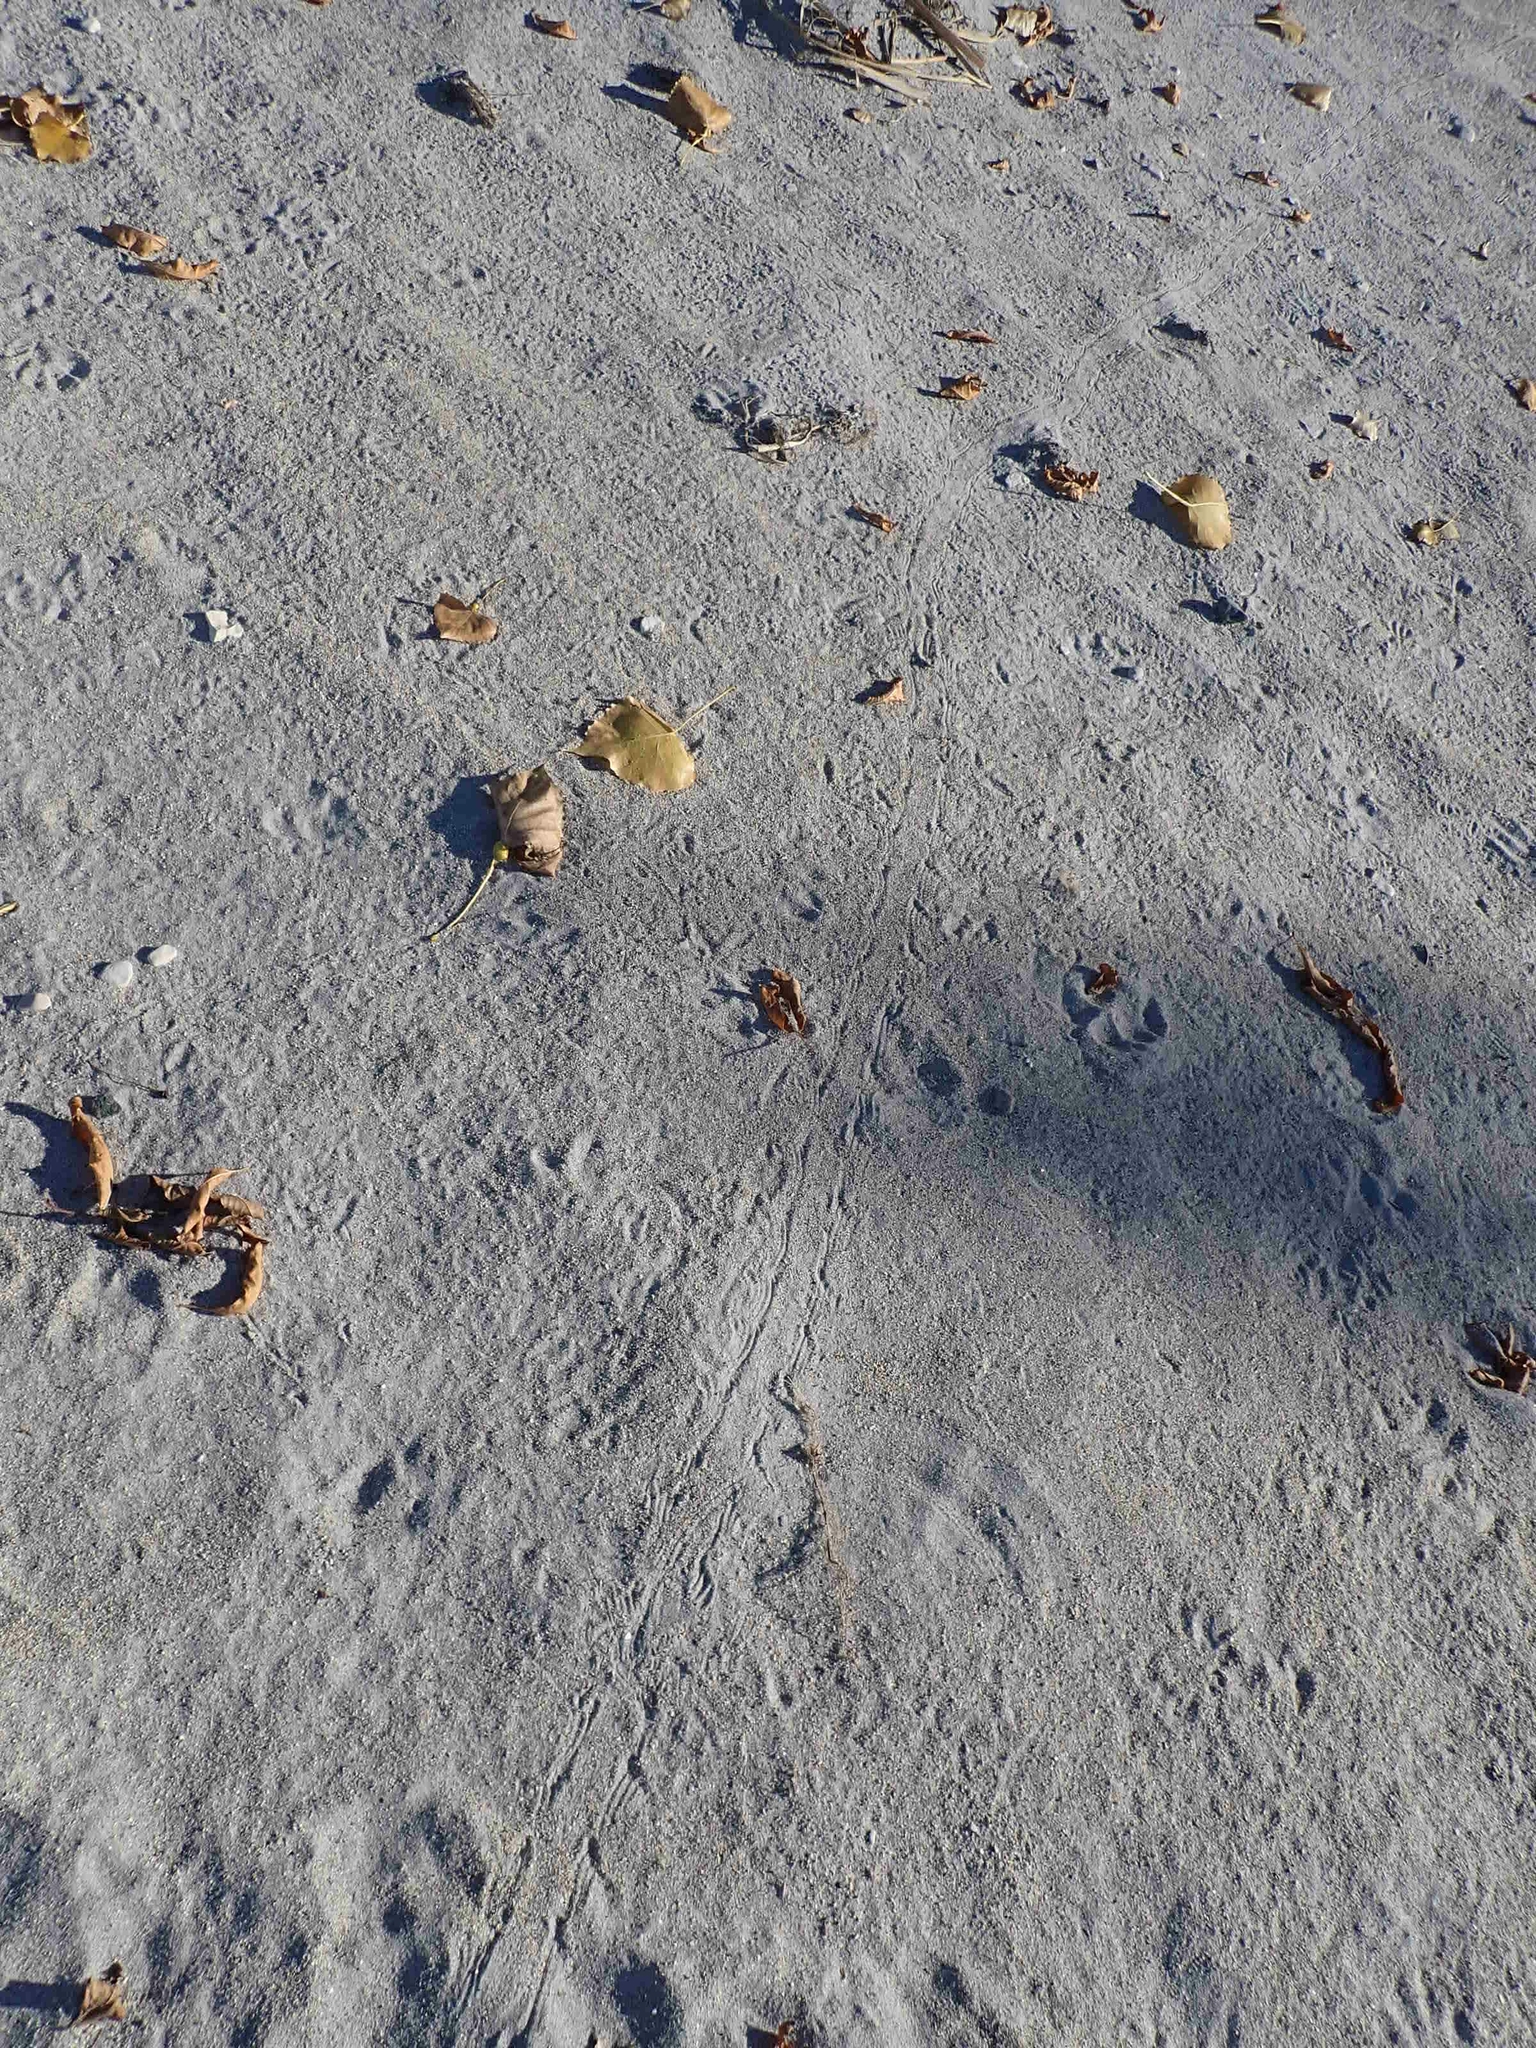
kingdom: Animalia
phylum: Chordata
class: Amphibia
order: Anura
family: Bufonidae
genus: Anaxyrus
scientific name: Anaxyrus hemiophrys
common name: Canadian toad
